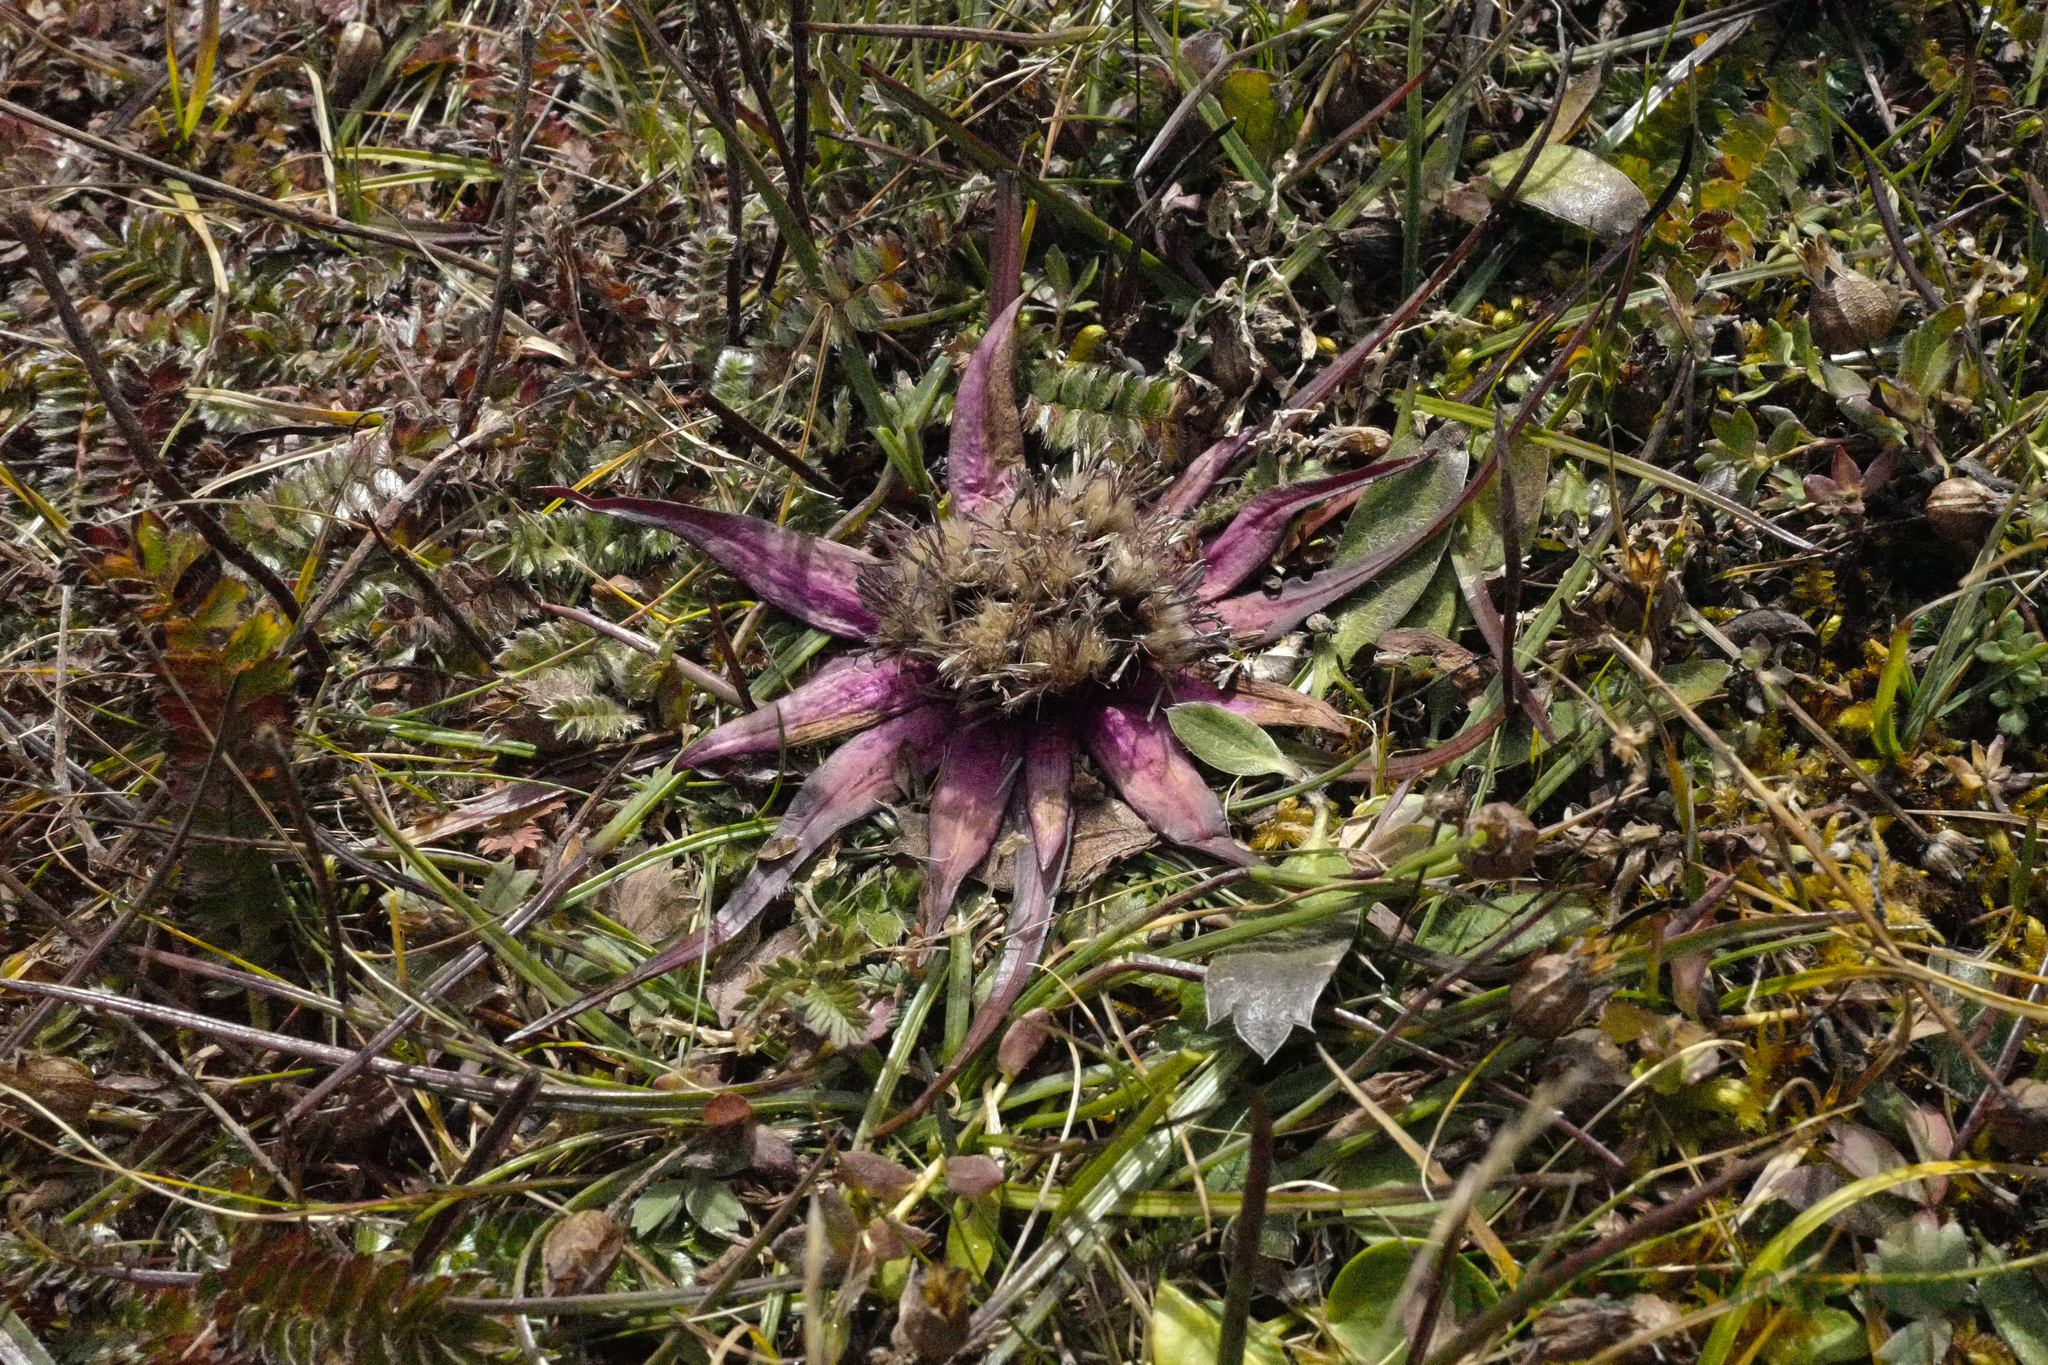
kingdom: Plantae
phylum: Tracheophyta
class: Magnoliopsida
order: Asterales
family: Asteraceae
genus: Saussurea
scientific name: Saussurea stella
